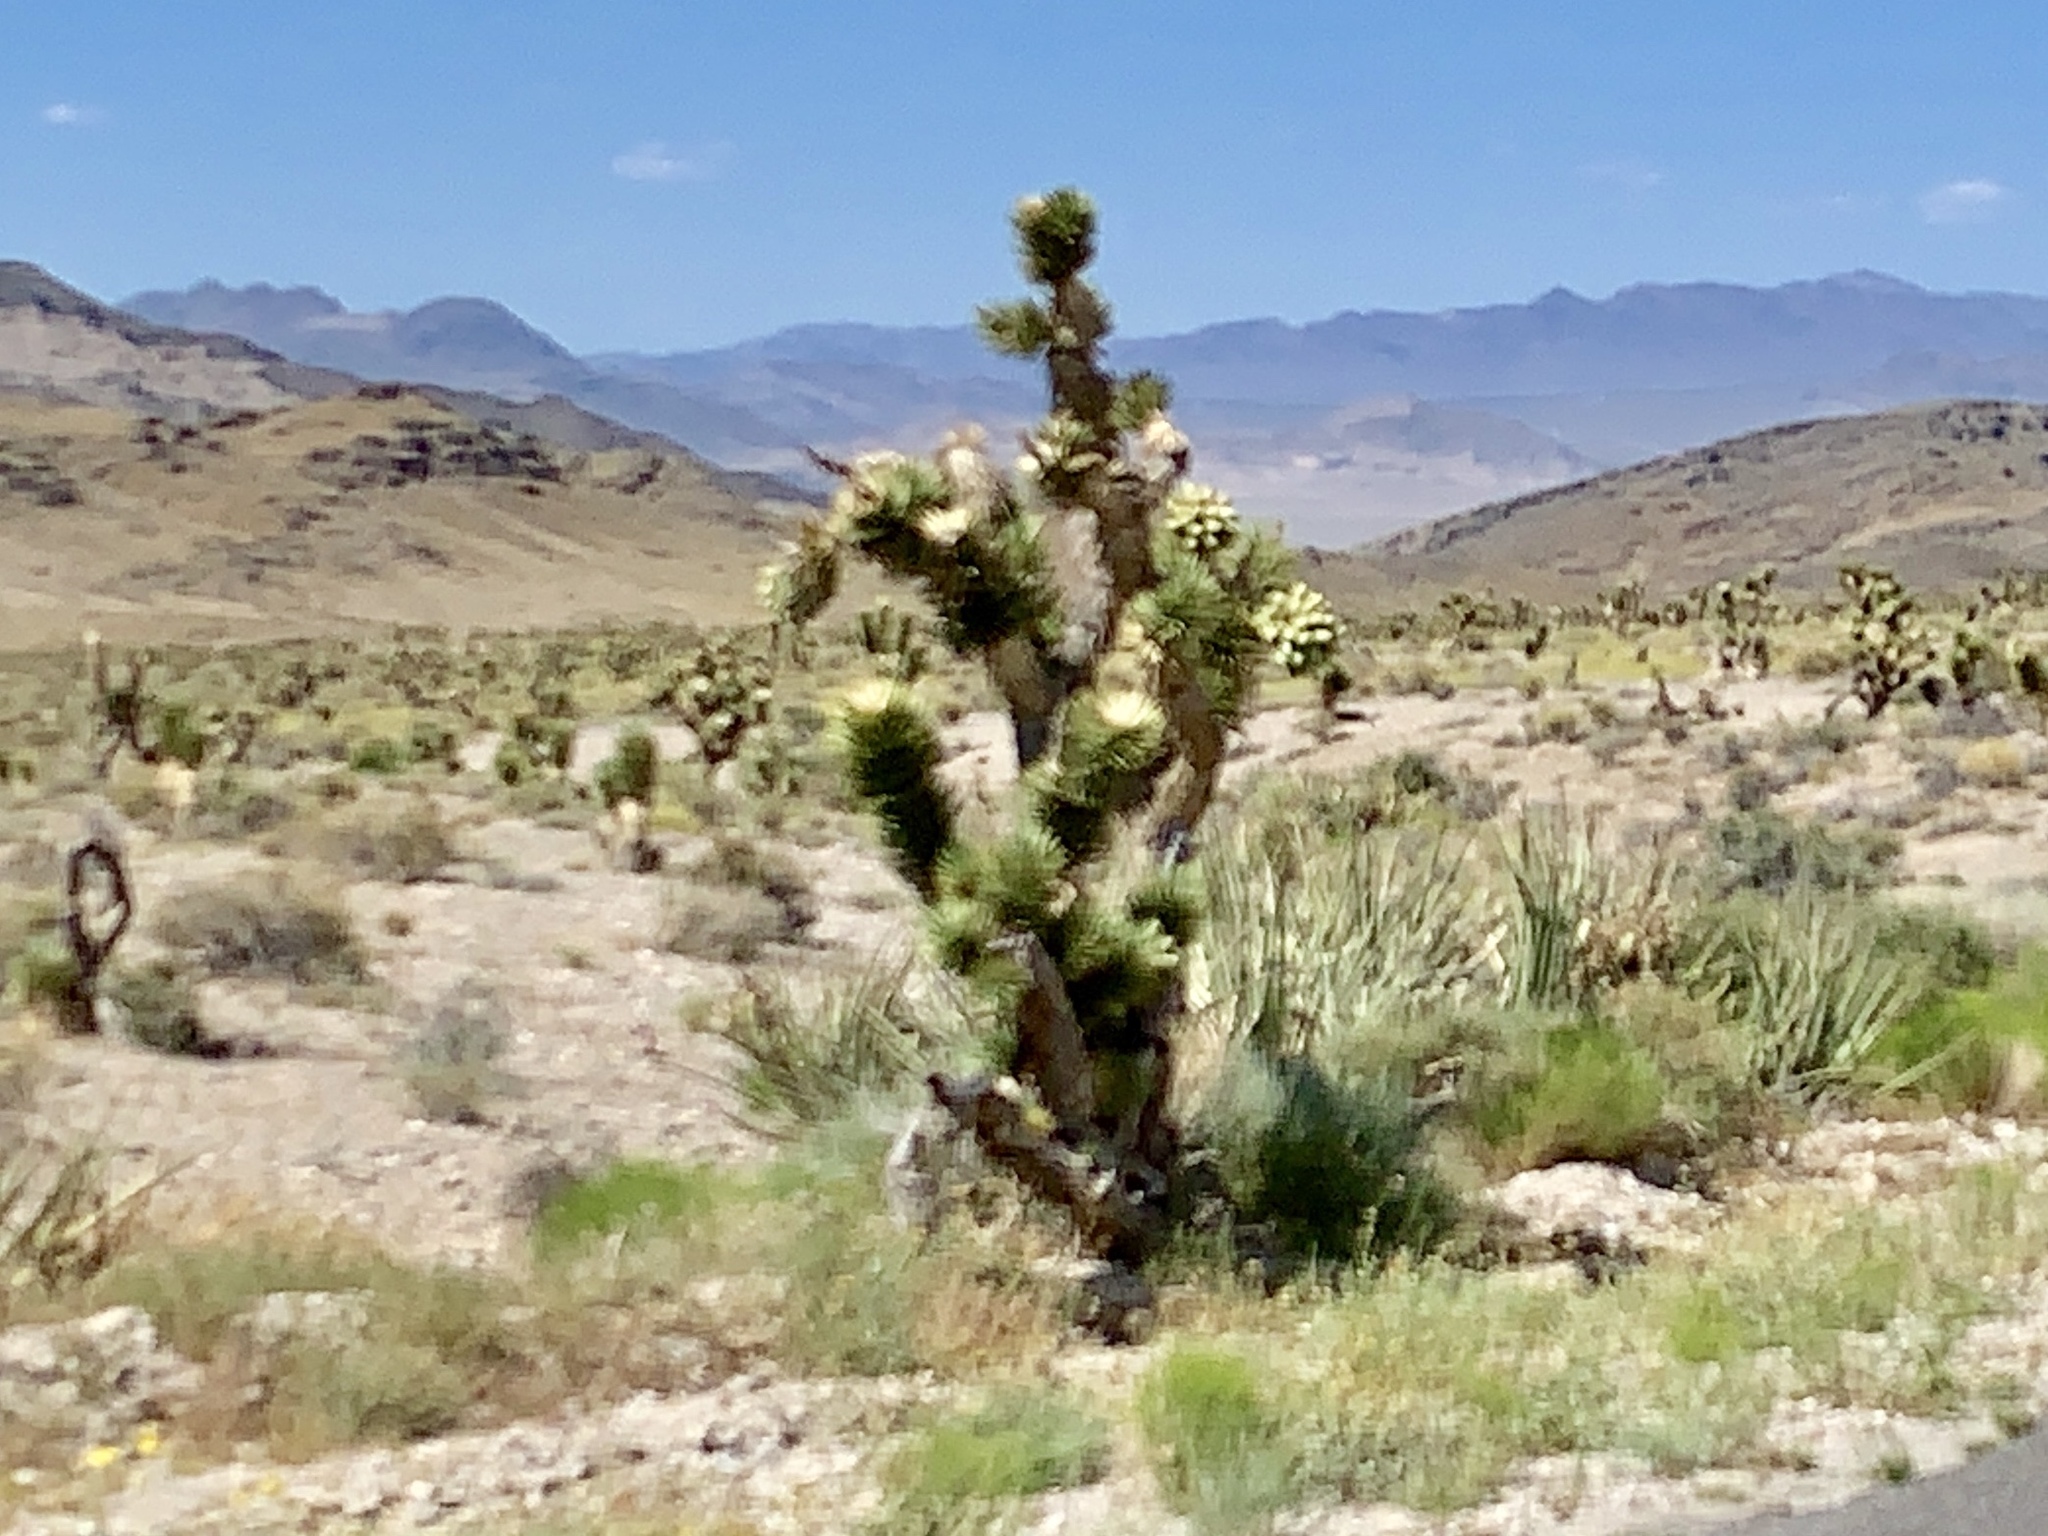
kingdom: Plantae
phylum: Tracheophyta
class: Liliopsida
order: Asparagales
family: Asparagaceae
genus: Yucca
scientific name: Yucca brevifolia
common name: Joshua tree
